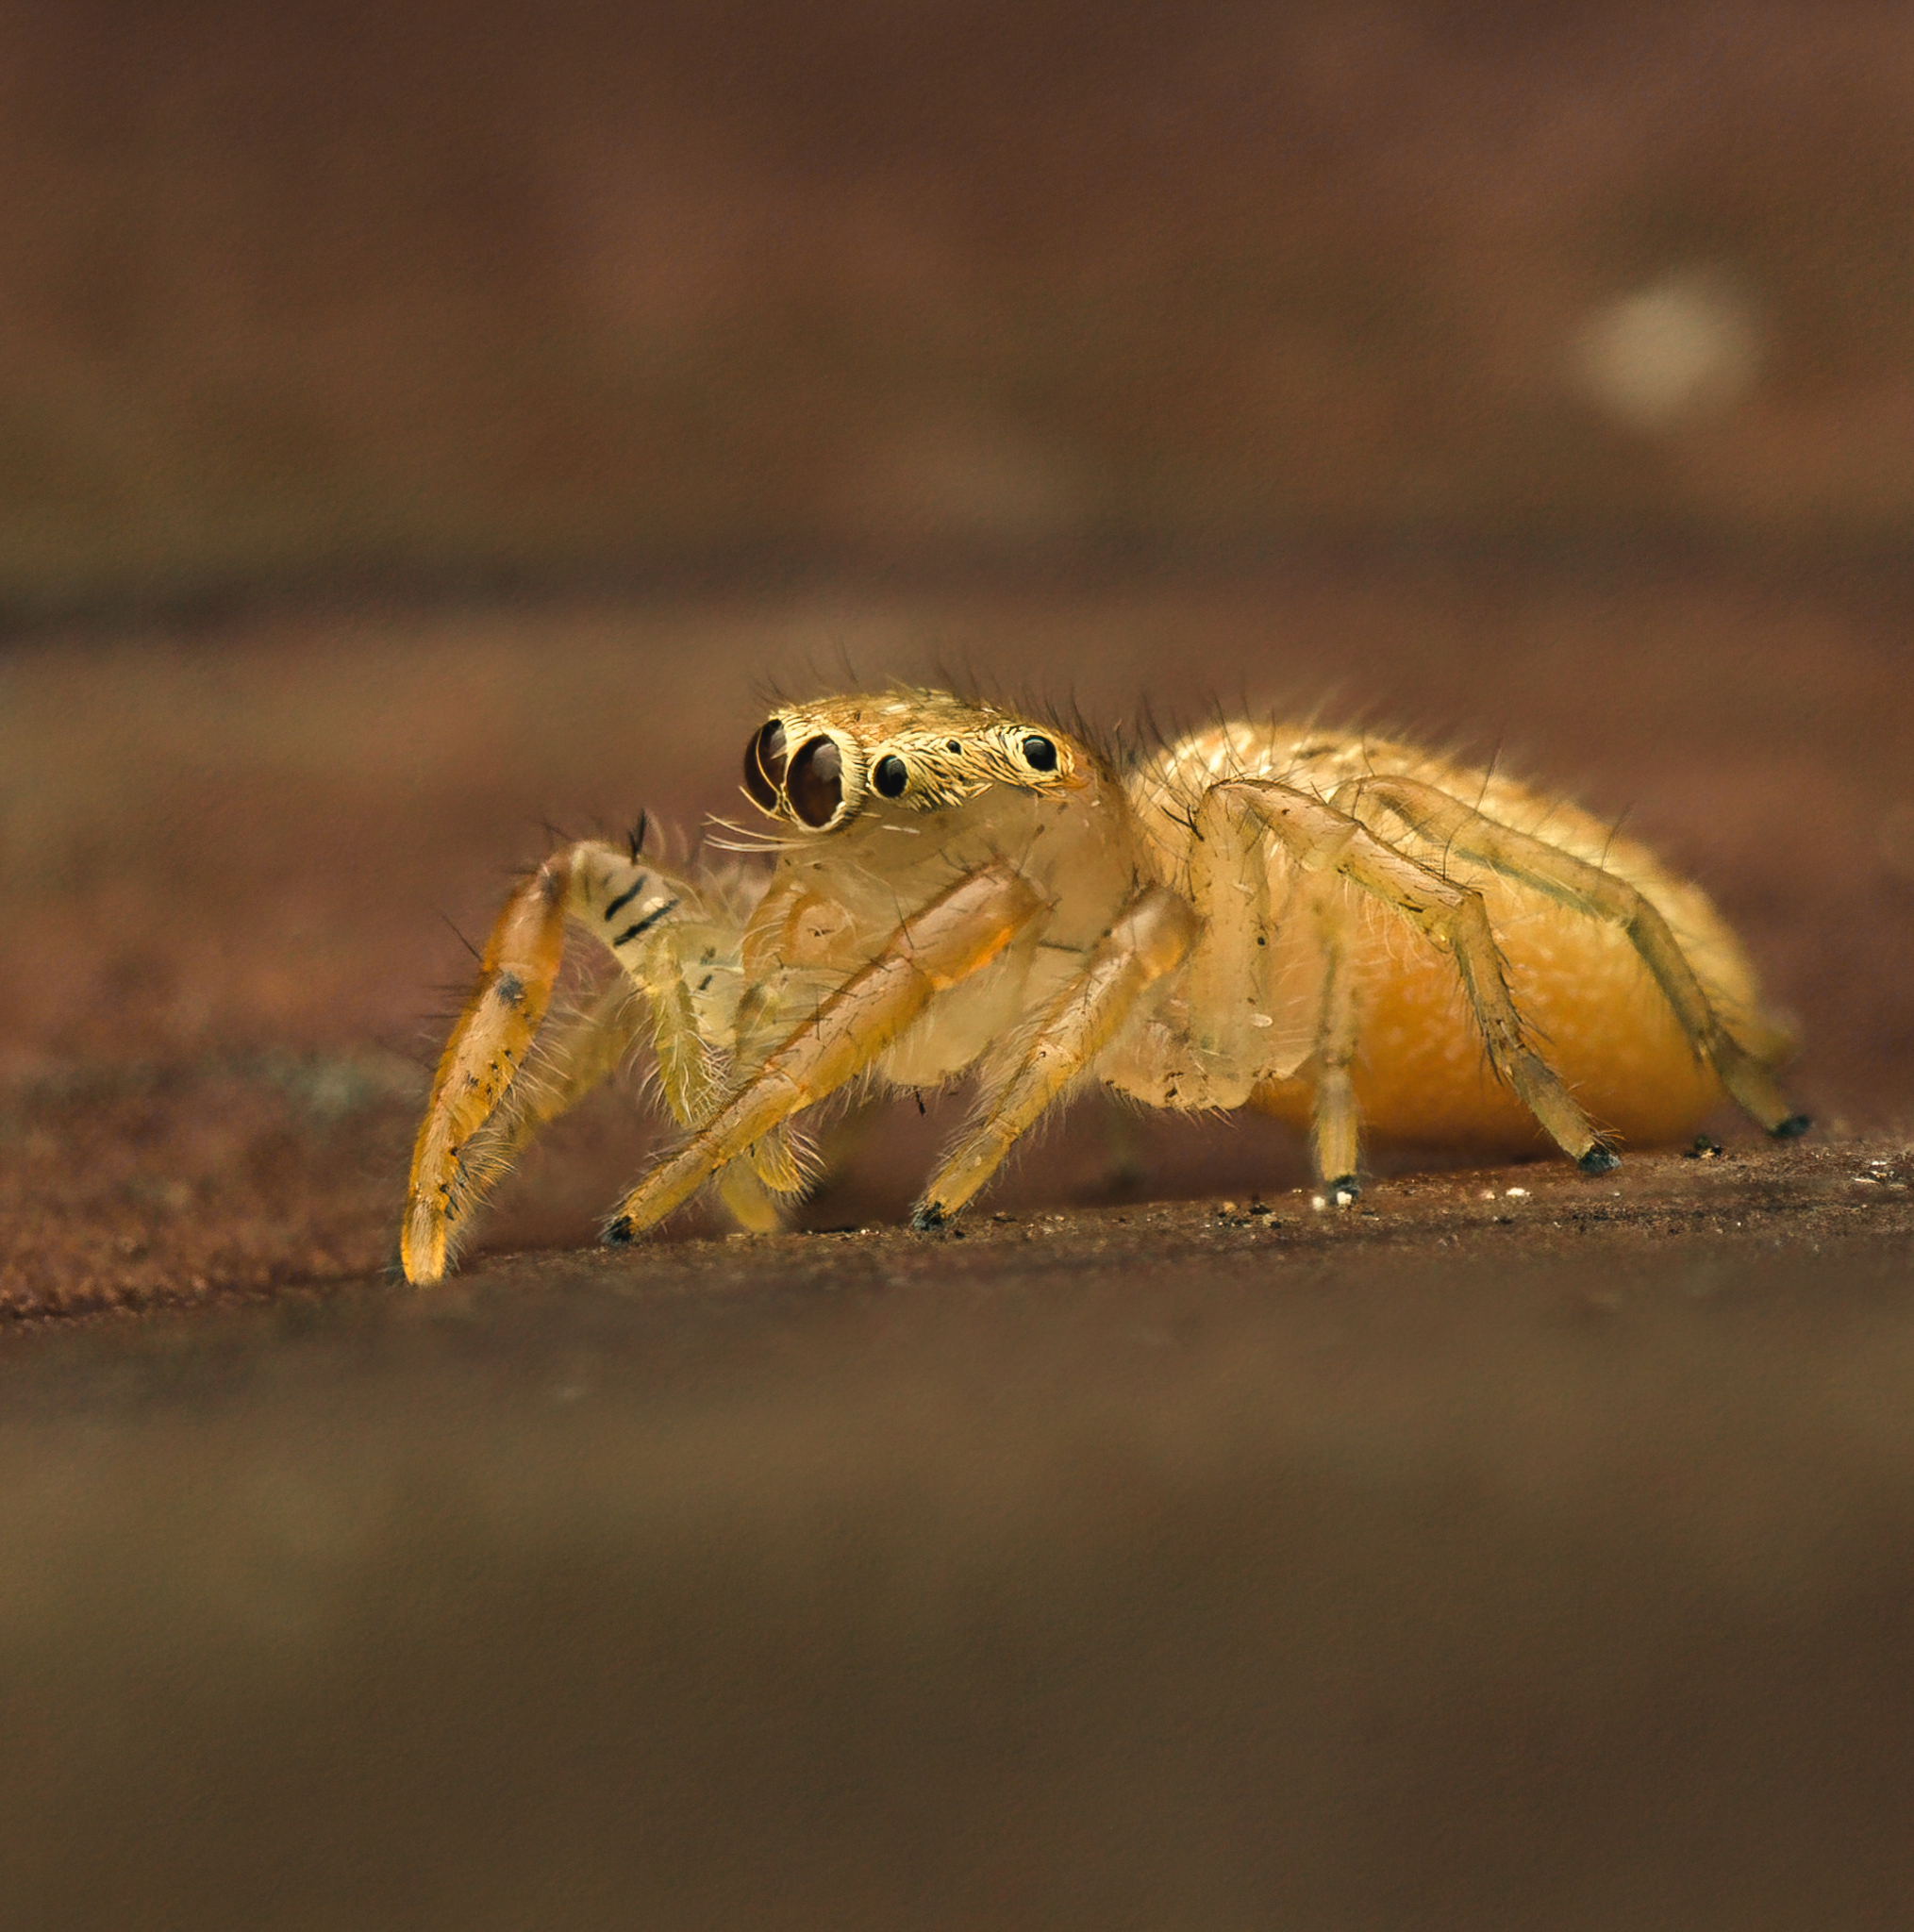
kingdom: Animalia
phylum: Arthropoda
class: Arachnida
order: Araneae
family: Salticidae
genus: Thyene
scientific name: Thyene ogdeni
